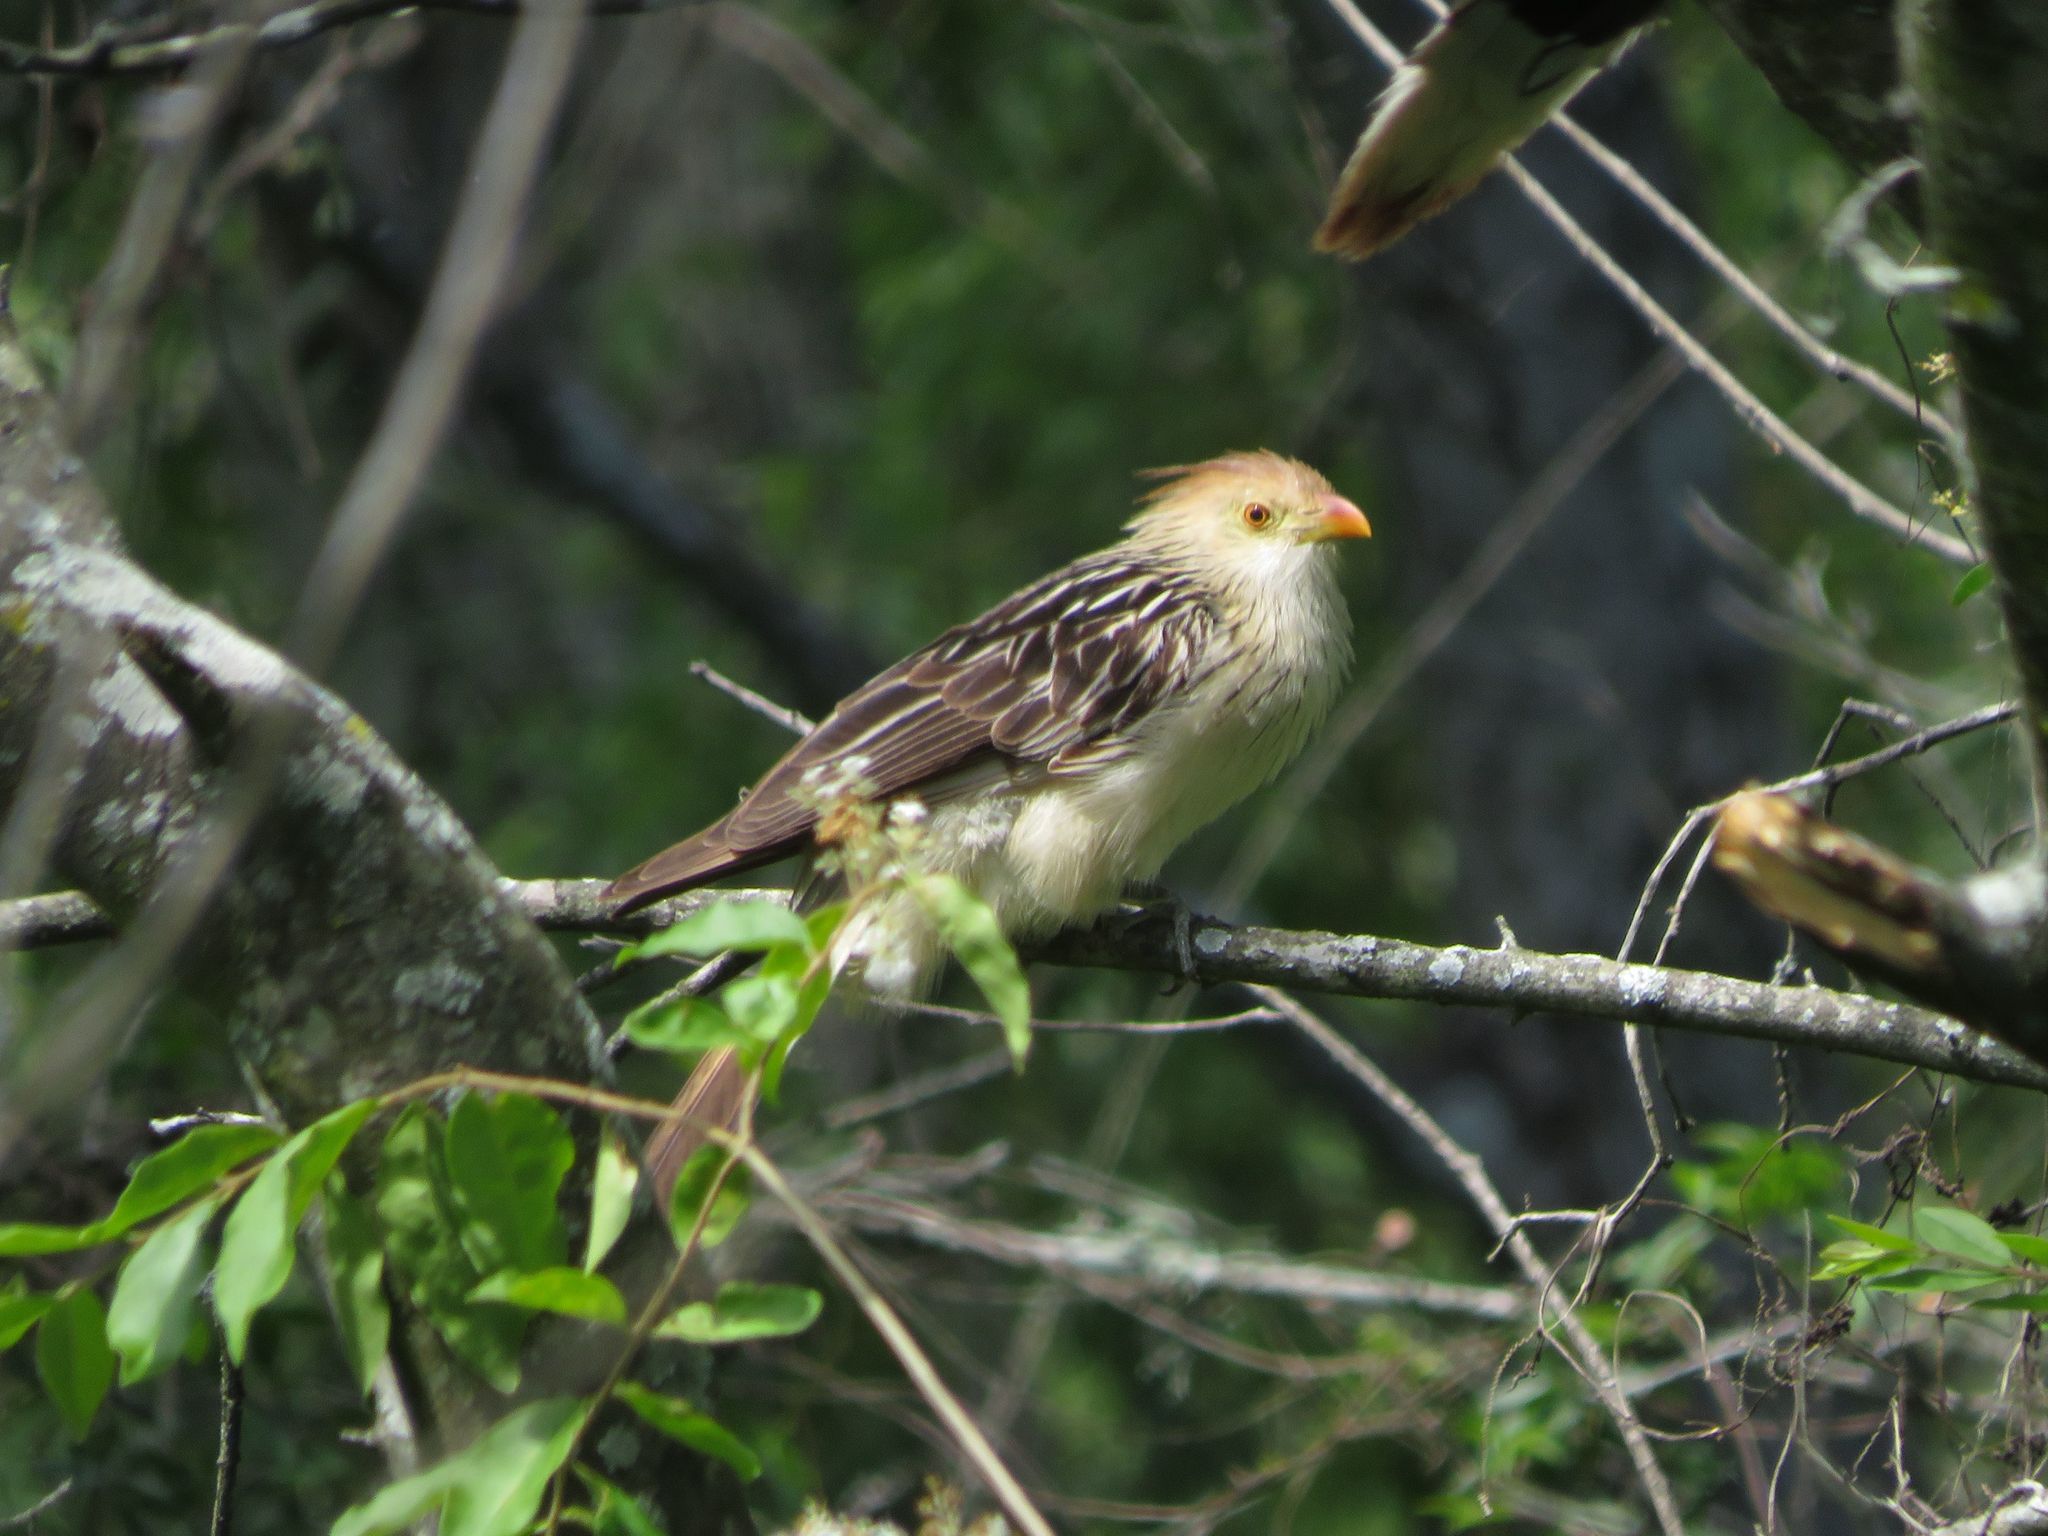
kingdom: Animalia
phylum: Chordata
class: Aves
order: Cuculiformes
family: Cuculidae
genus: Guira
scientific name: Guira guira
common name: Guira cuckoo
